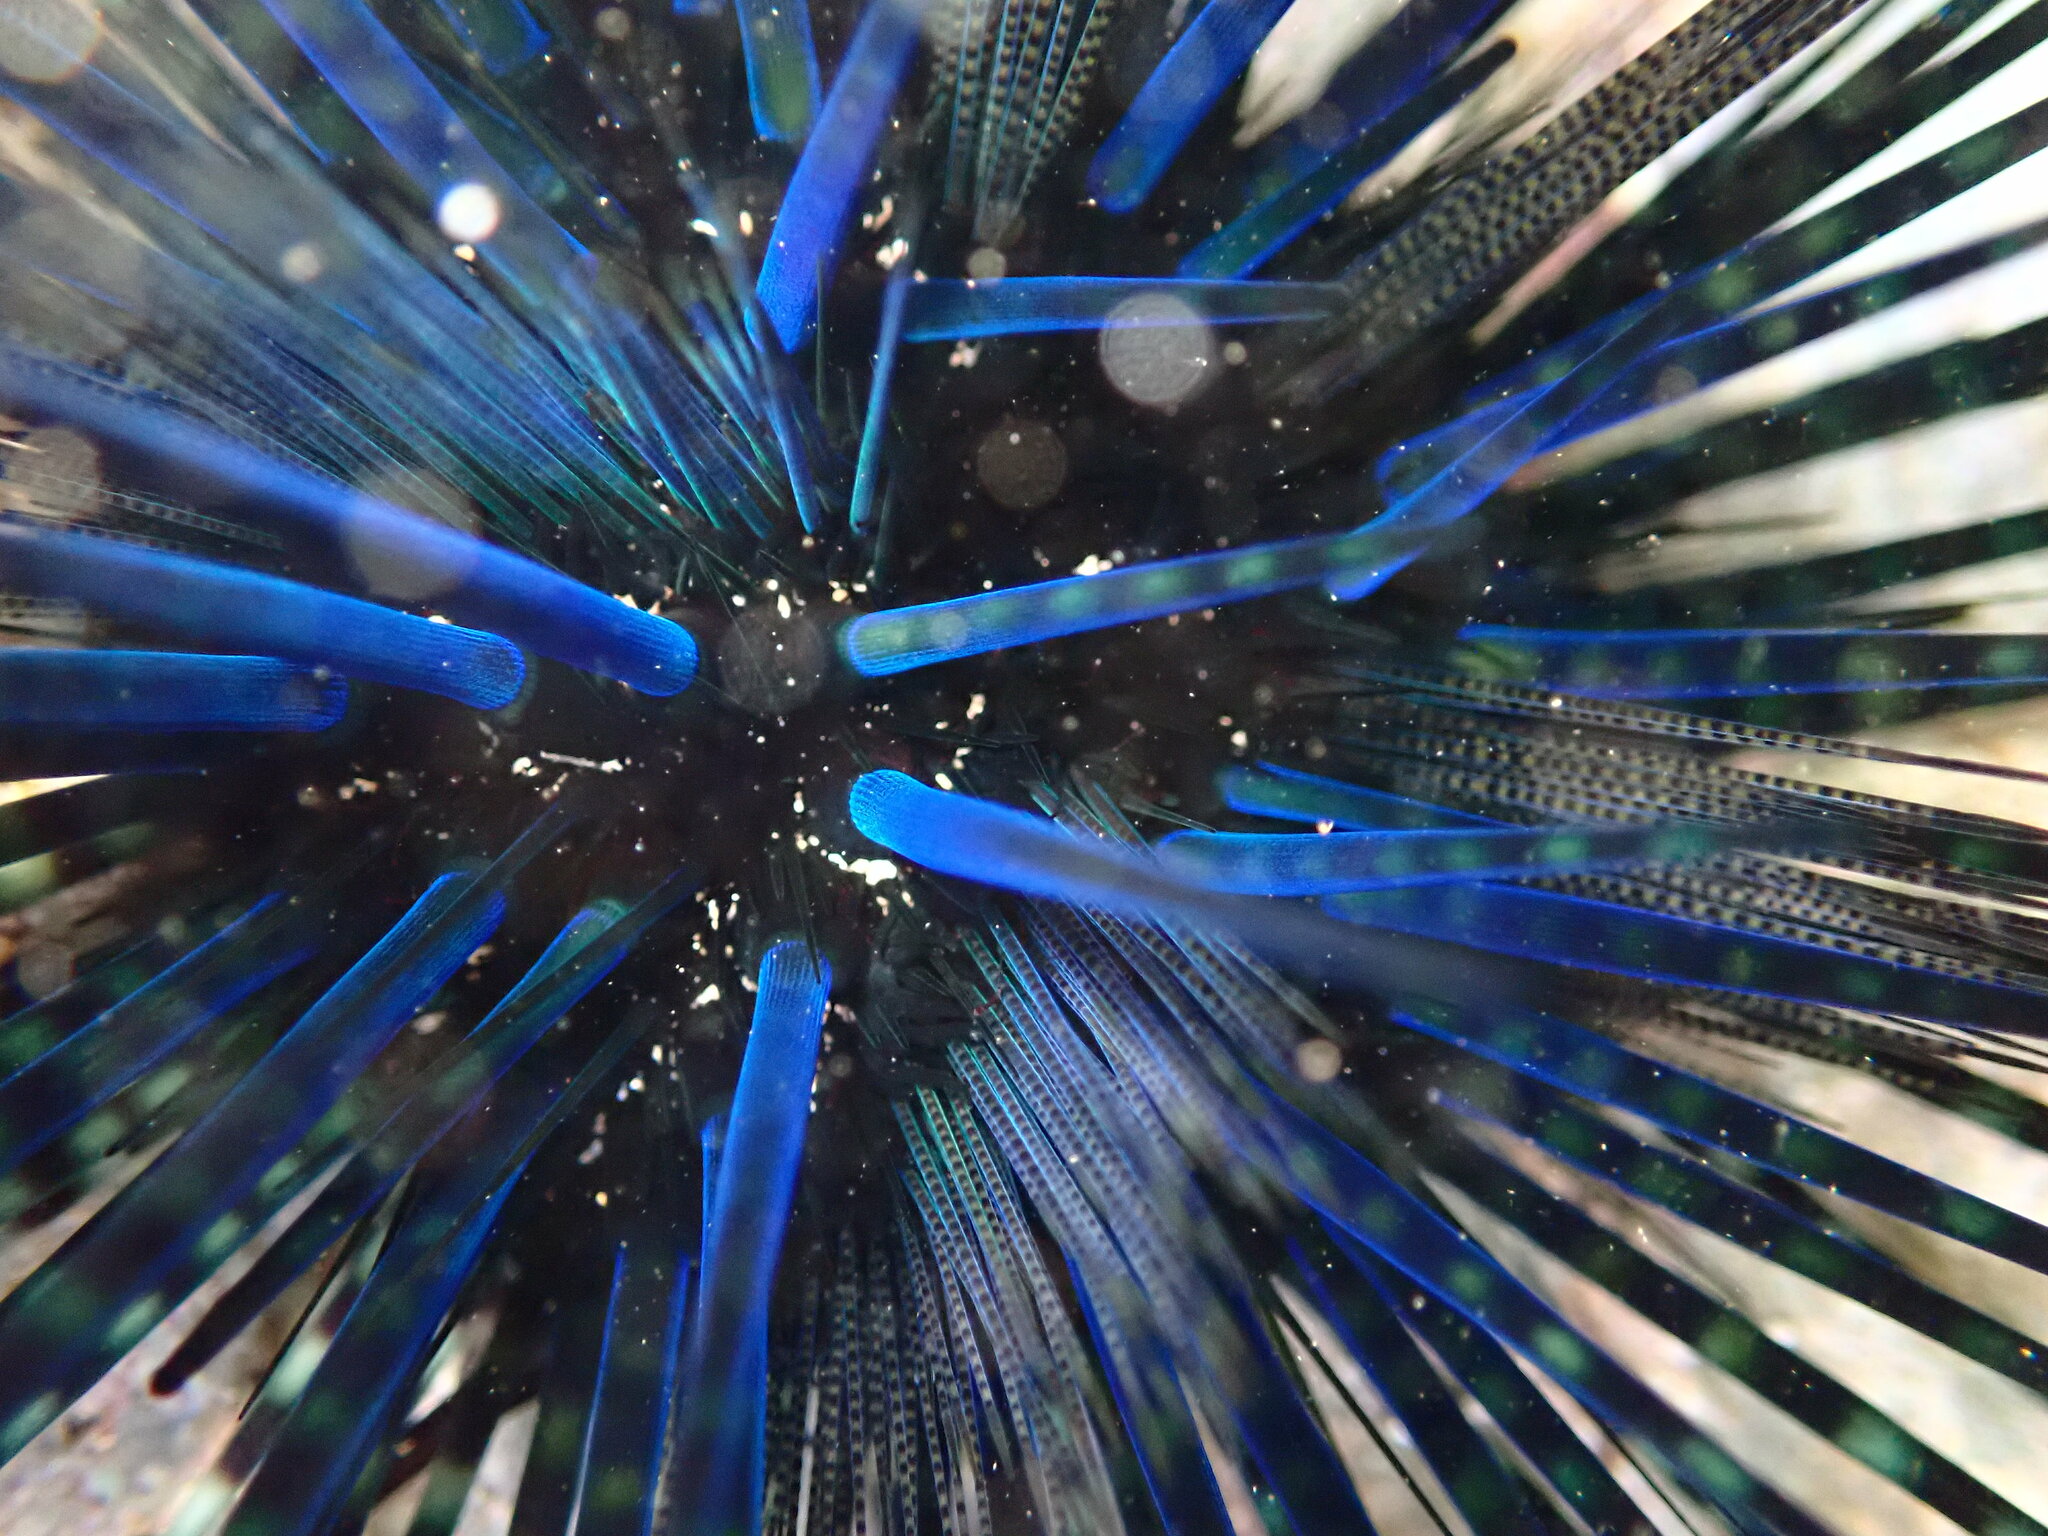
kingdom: Animalia
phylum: Echinodermata
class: Echinoidea
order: Diadematoida
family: Diadematidae
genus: Echinothrix
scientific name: Echinothrix diadema
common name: Schwarzer diademseeigel
